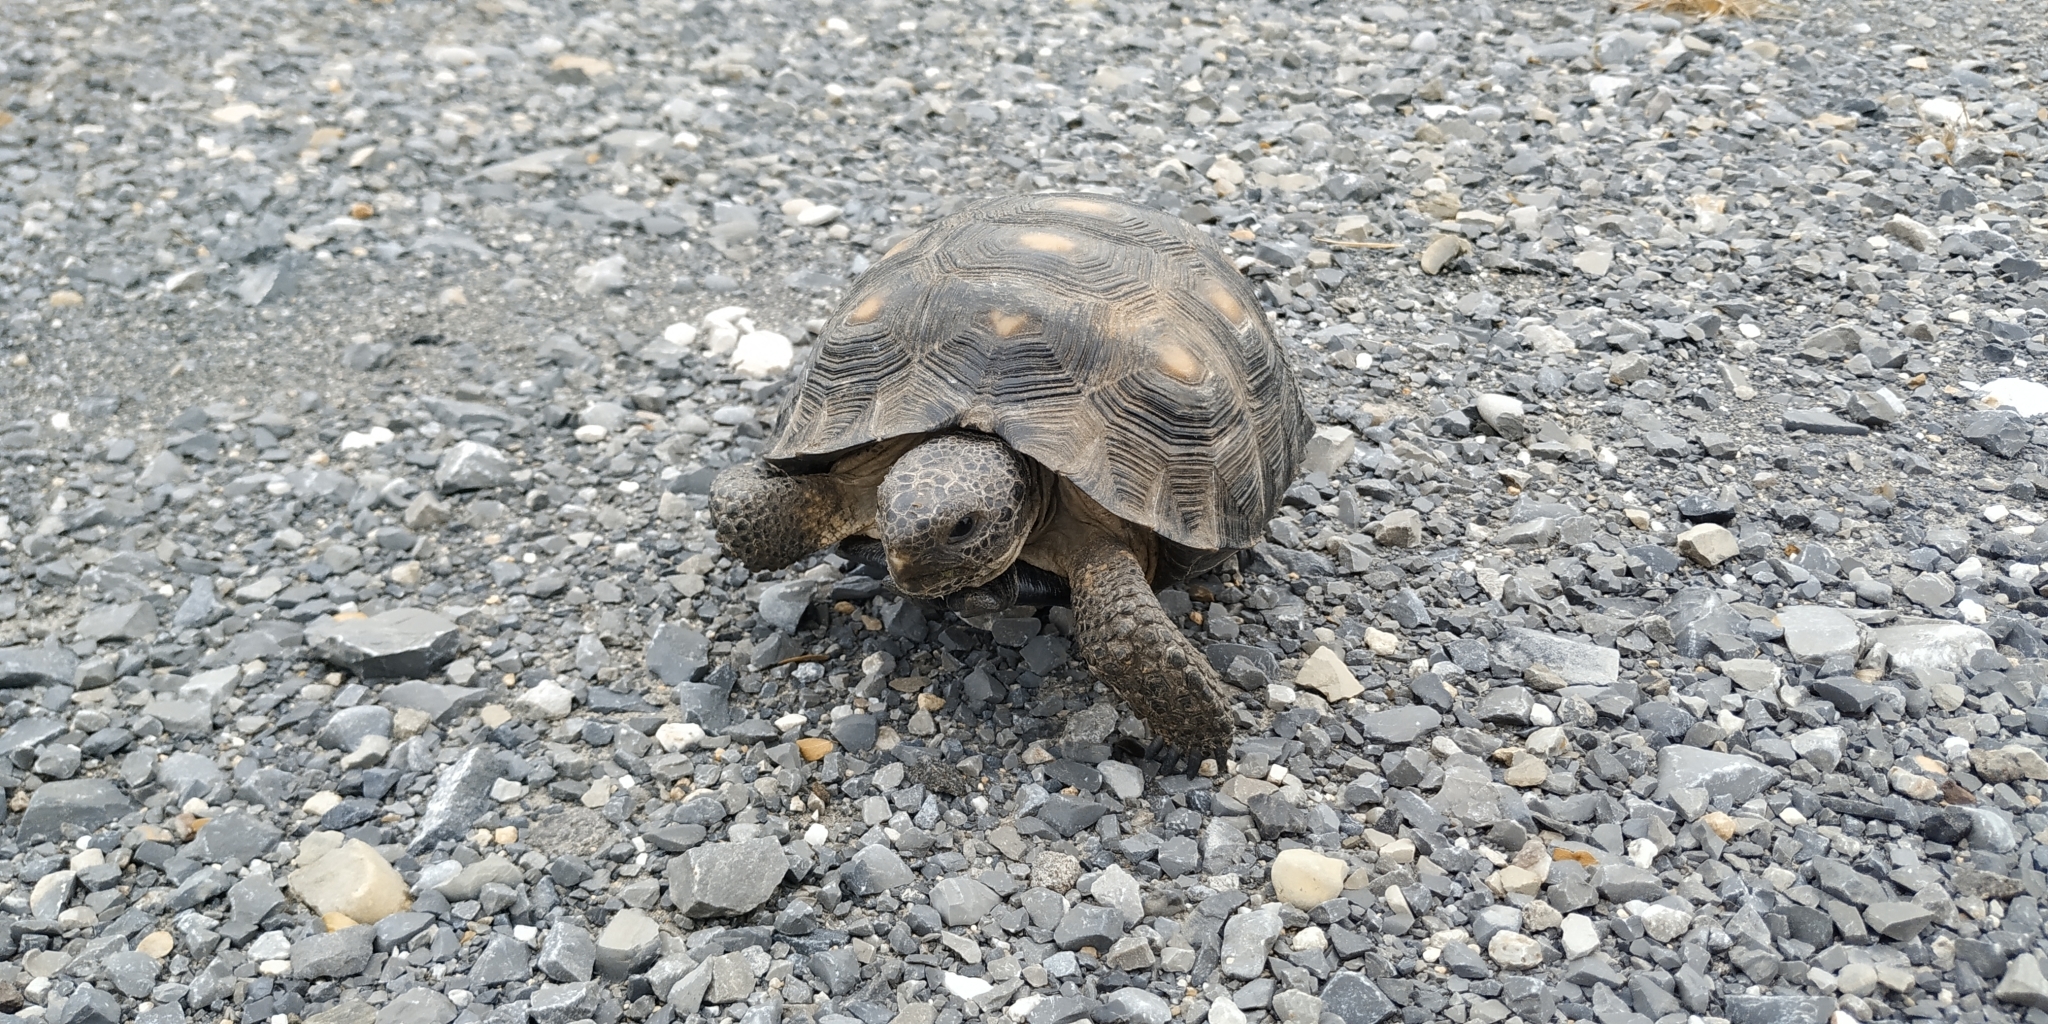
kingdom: Animalia
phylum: Chordata
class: Testudines
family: Testudinidae
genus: Gopherus
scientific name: Gopherus berlandieri
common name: Texas (gopher )tortoise
